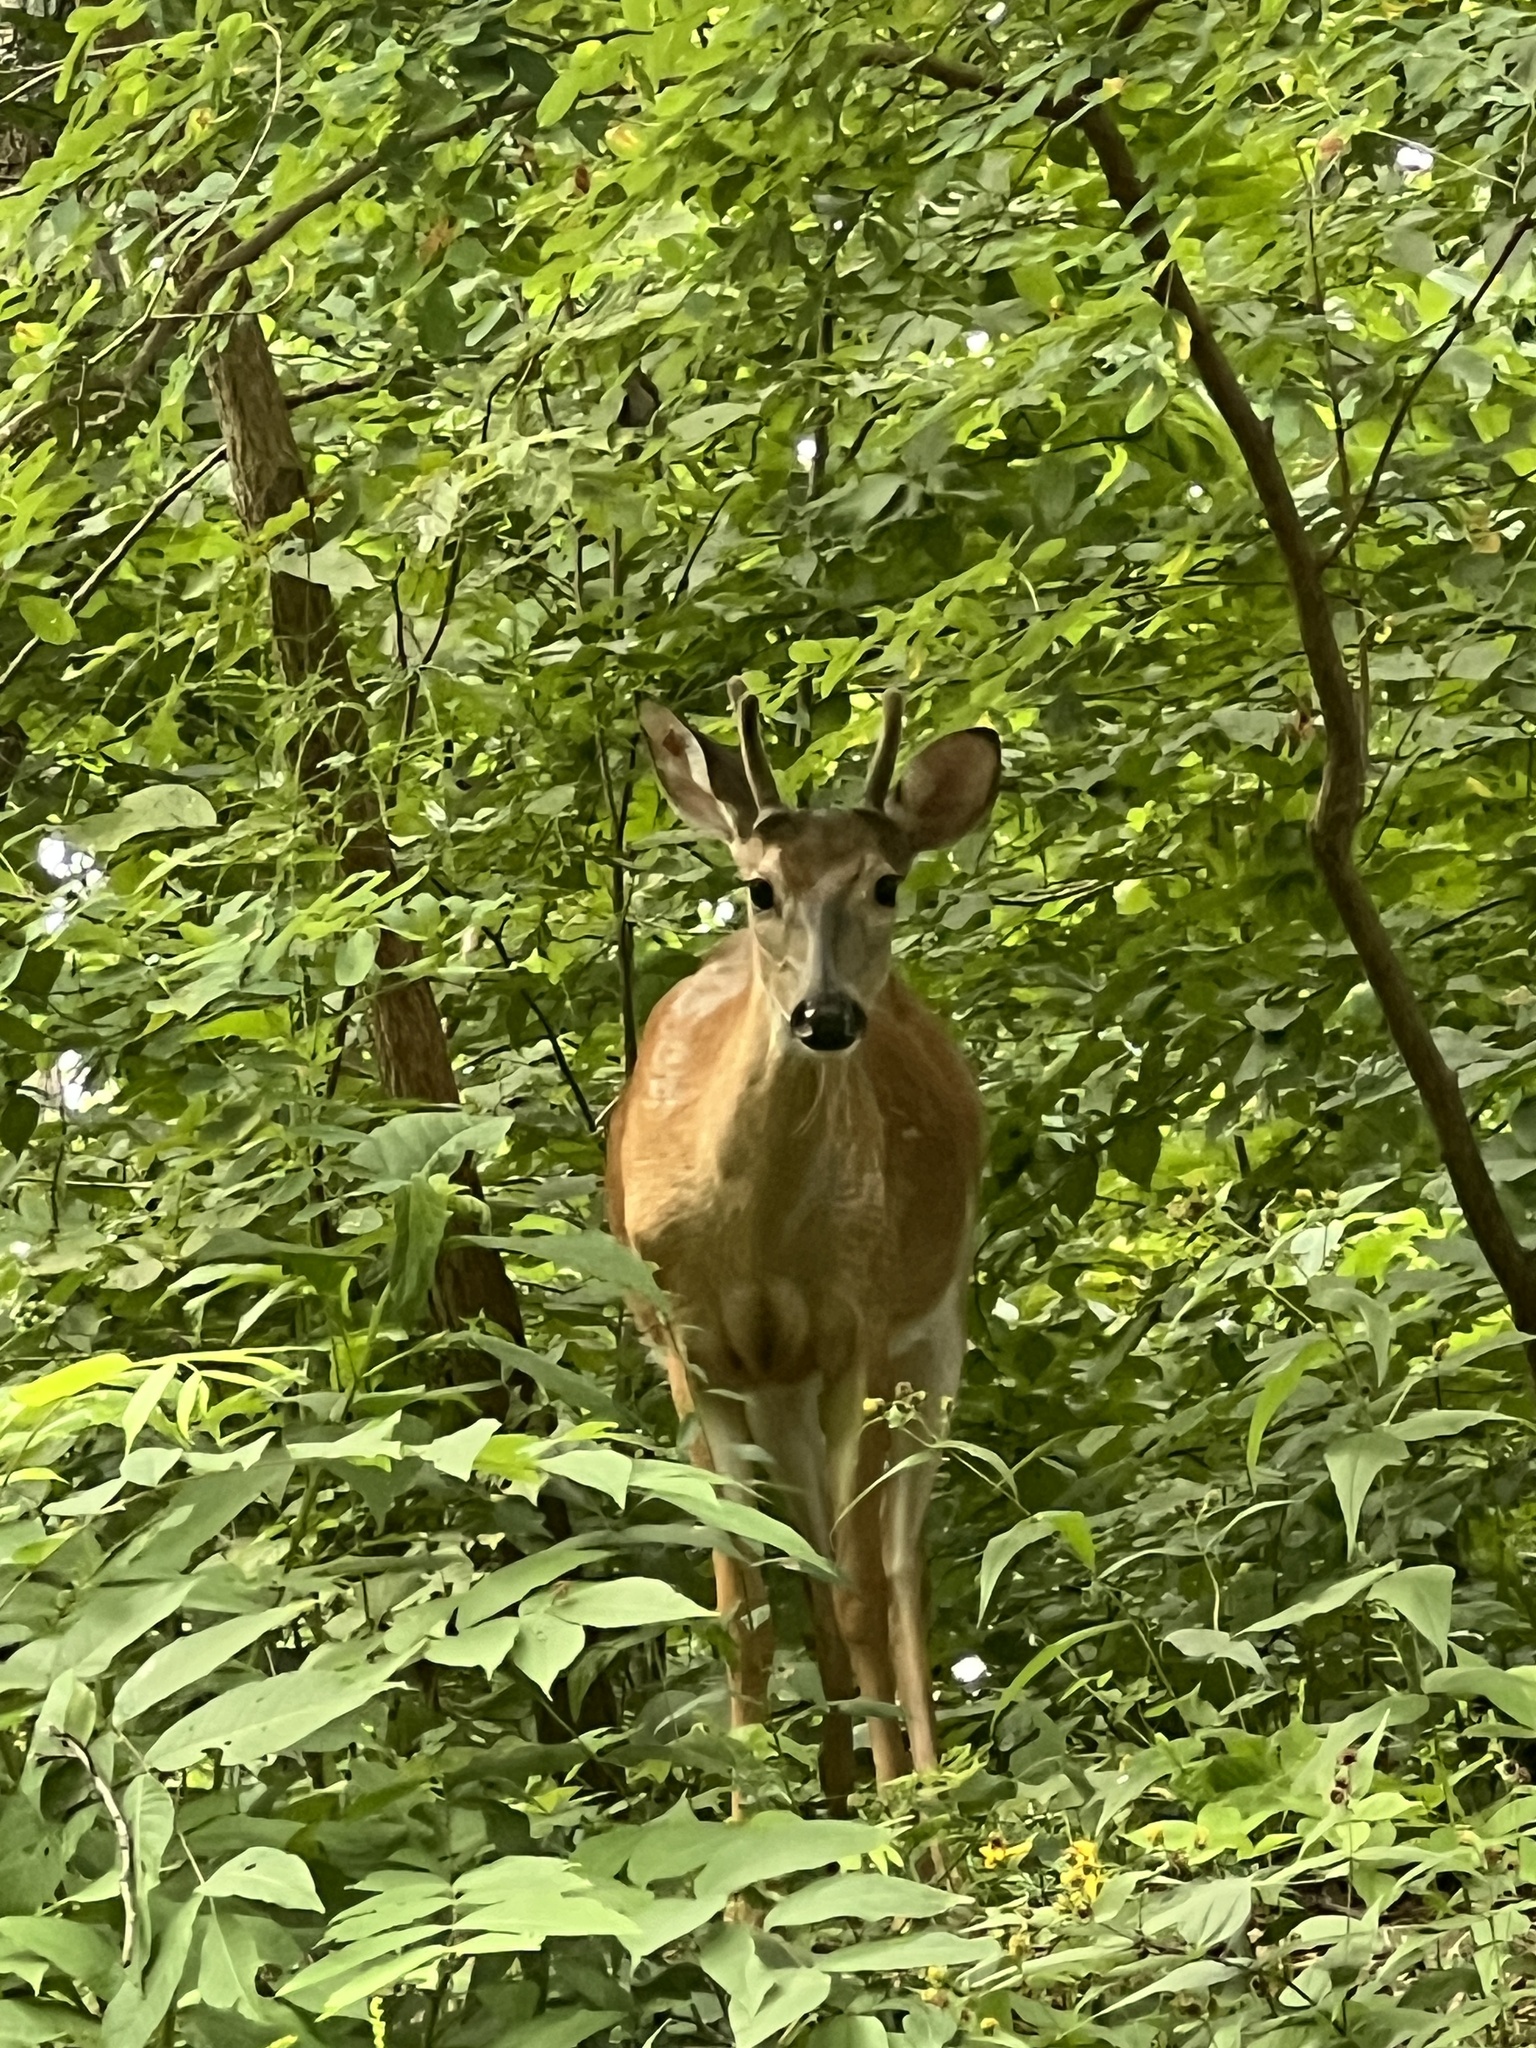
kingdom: Animalia
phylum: Chordata
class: Mammalia
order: Artiodactyla
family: Cervidae
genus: Odocoileus
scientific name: Odocoileus virginianus
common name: White-tailed deer
